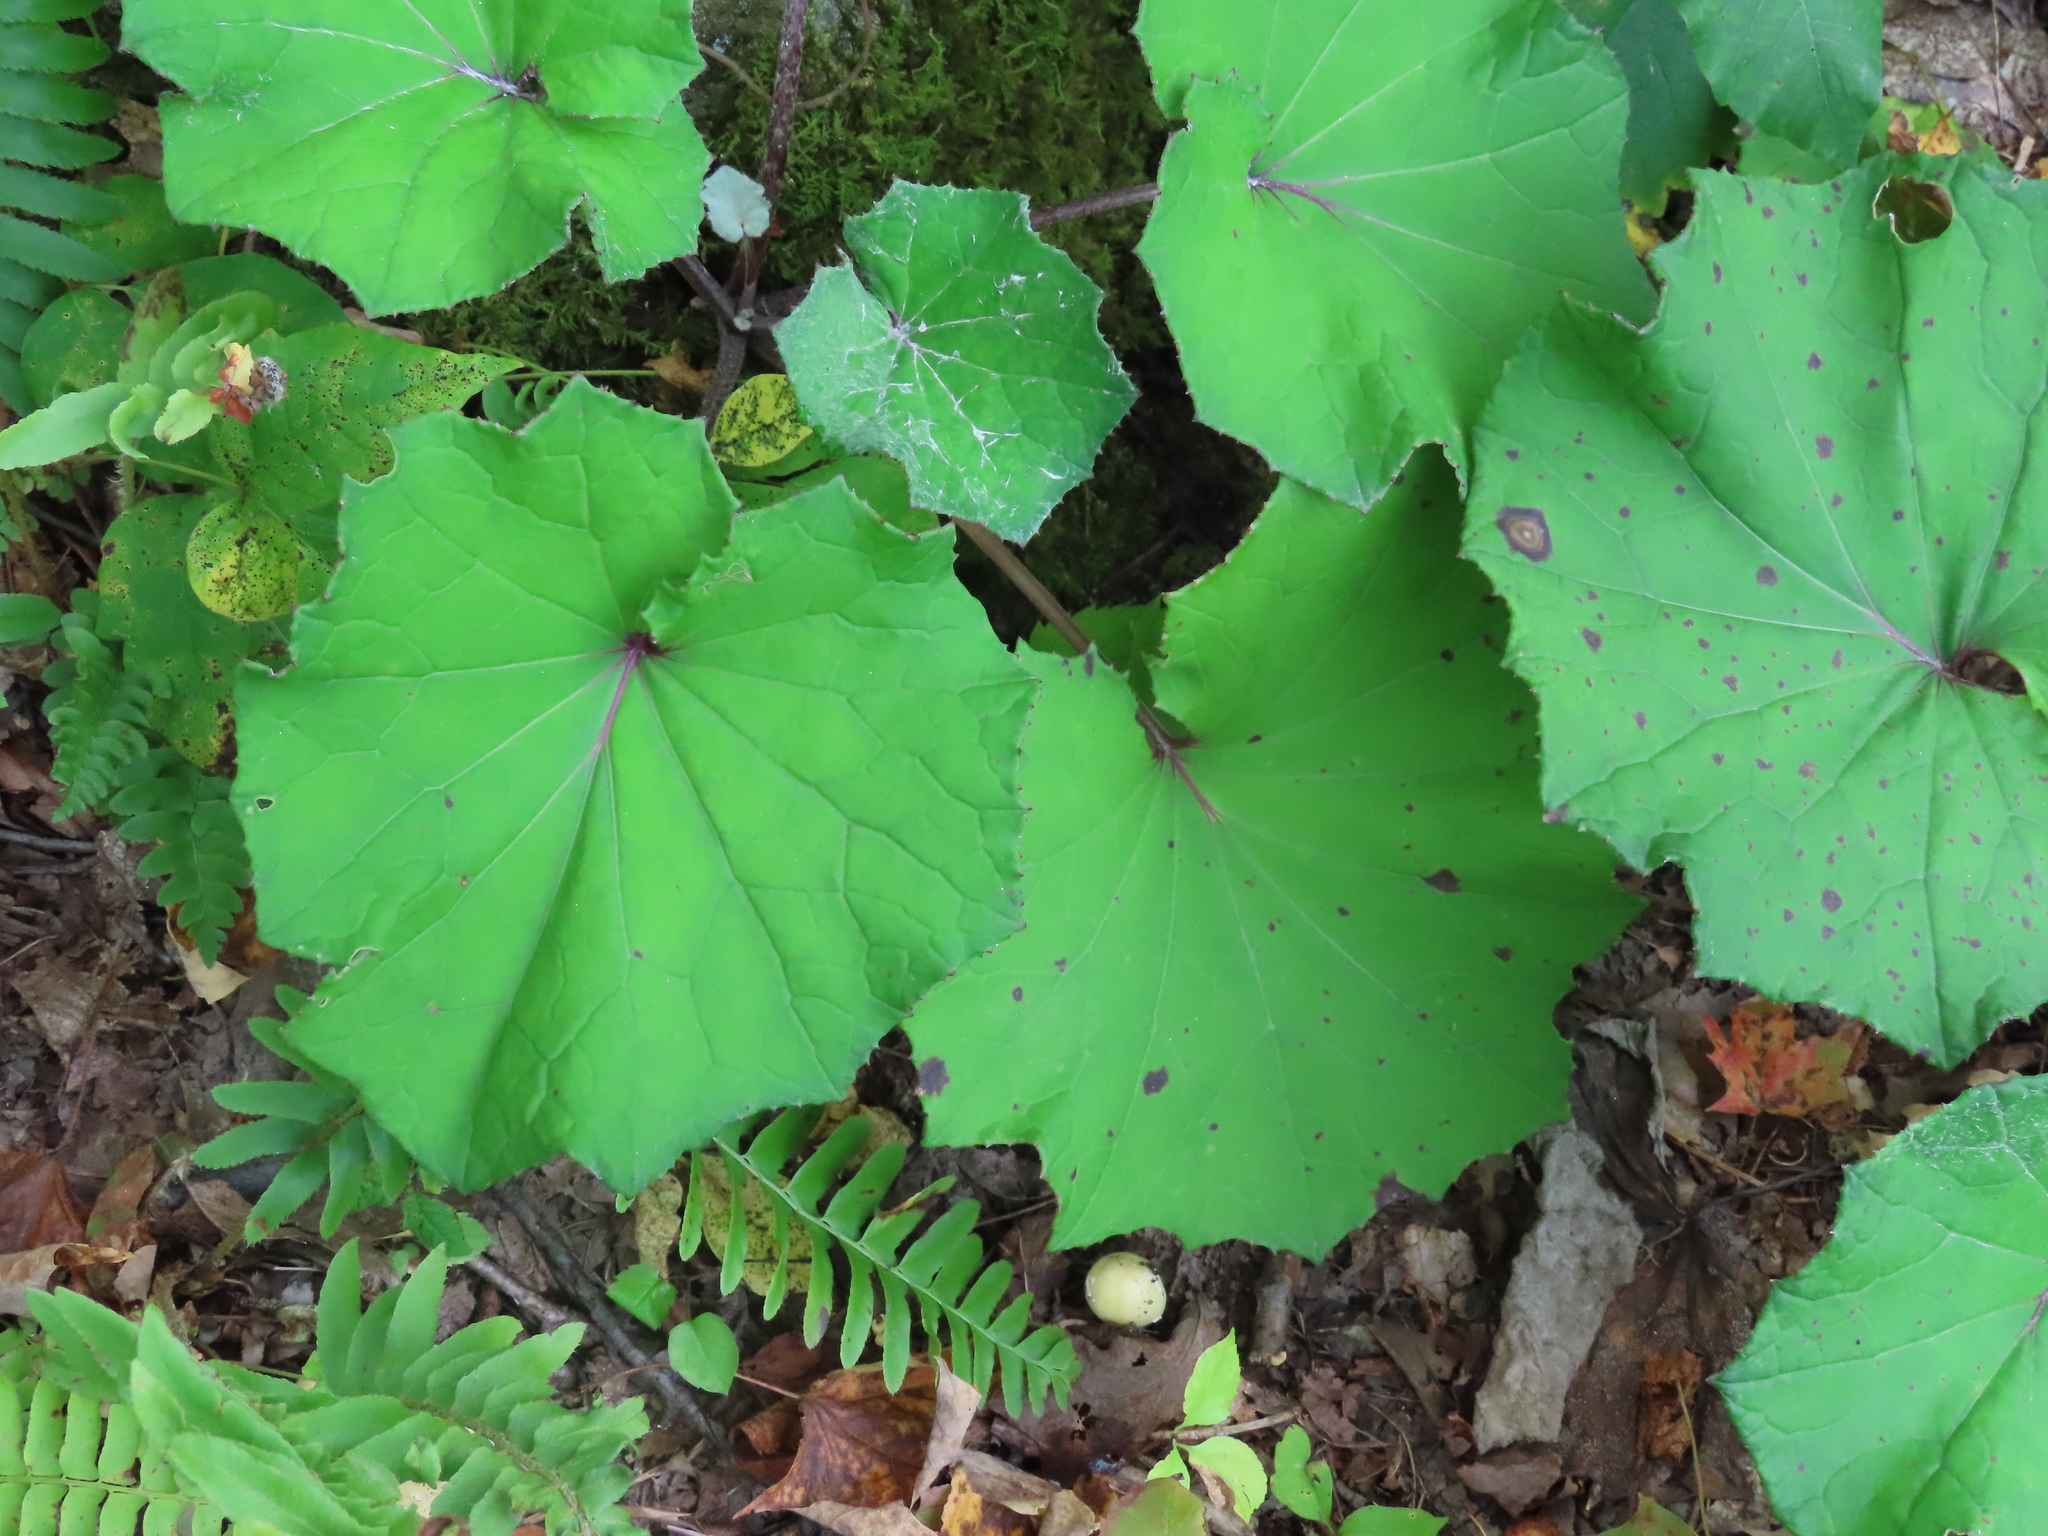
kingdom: Plantae
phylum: Tracheophyta
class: Magnoliopsida
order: Asterales
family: Asteraceae
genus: Tussilago
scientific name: Tussilago farfara
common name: Coltsfoot
